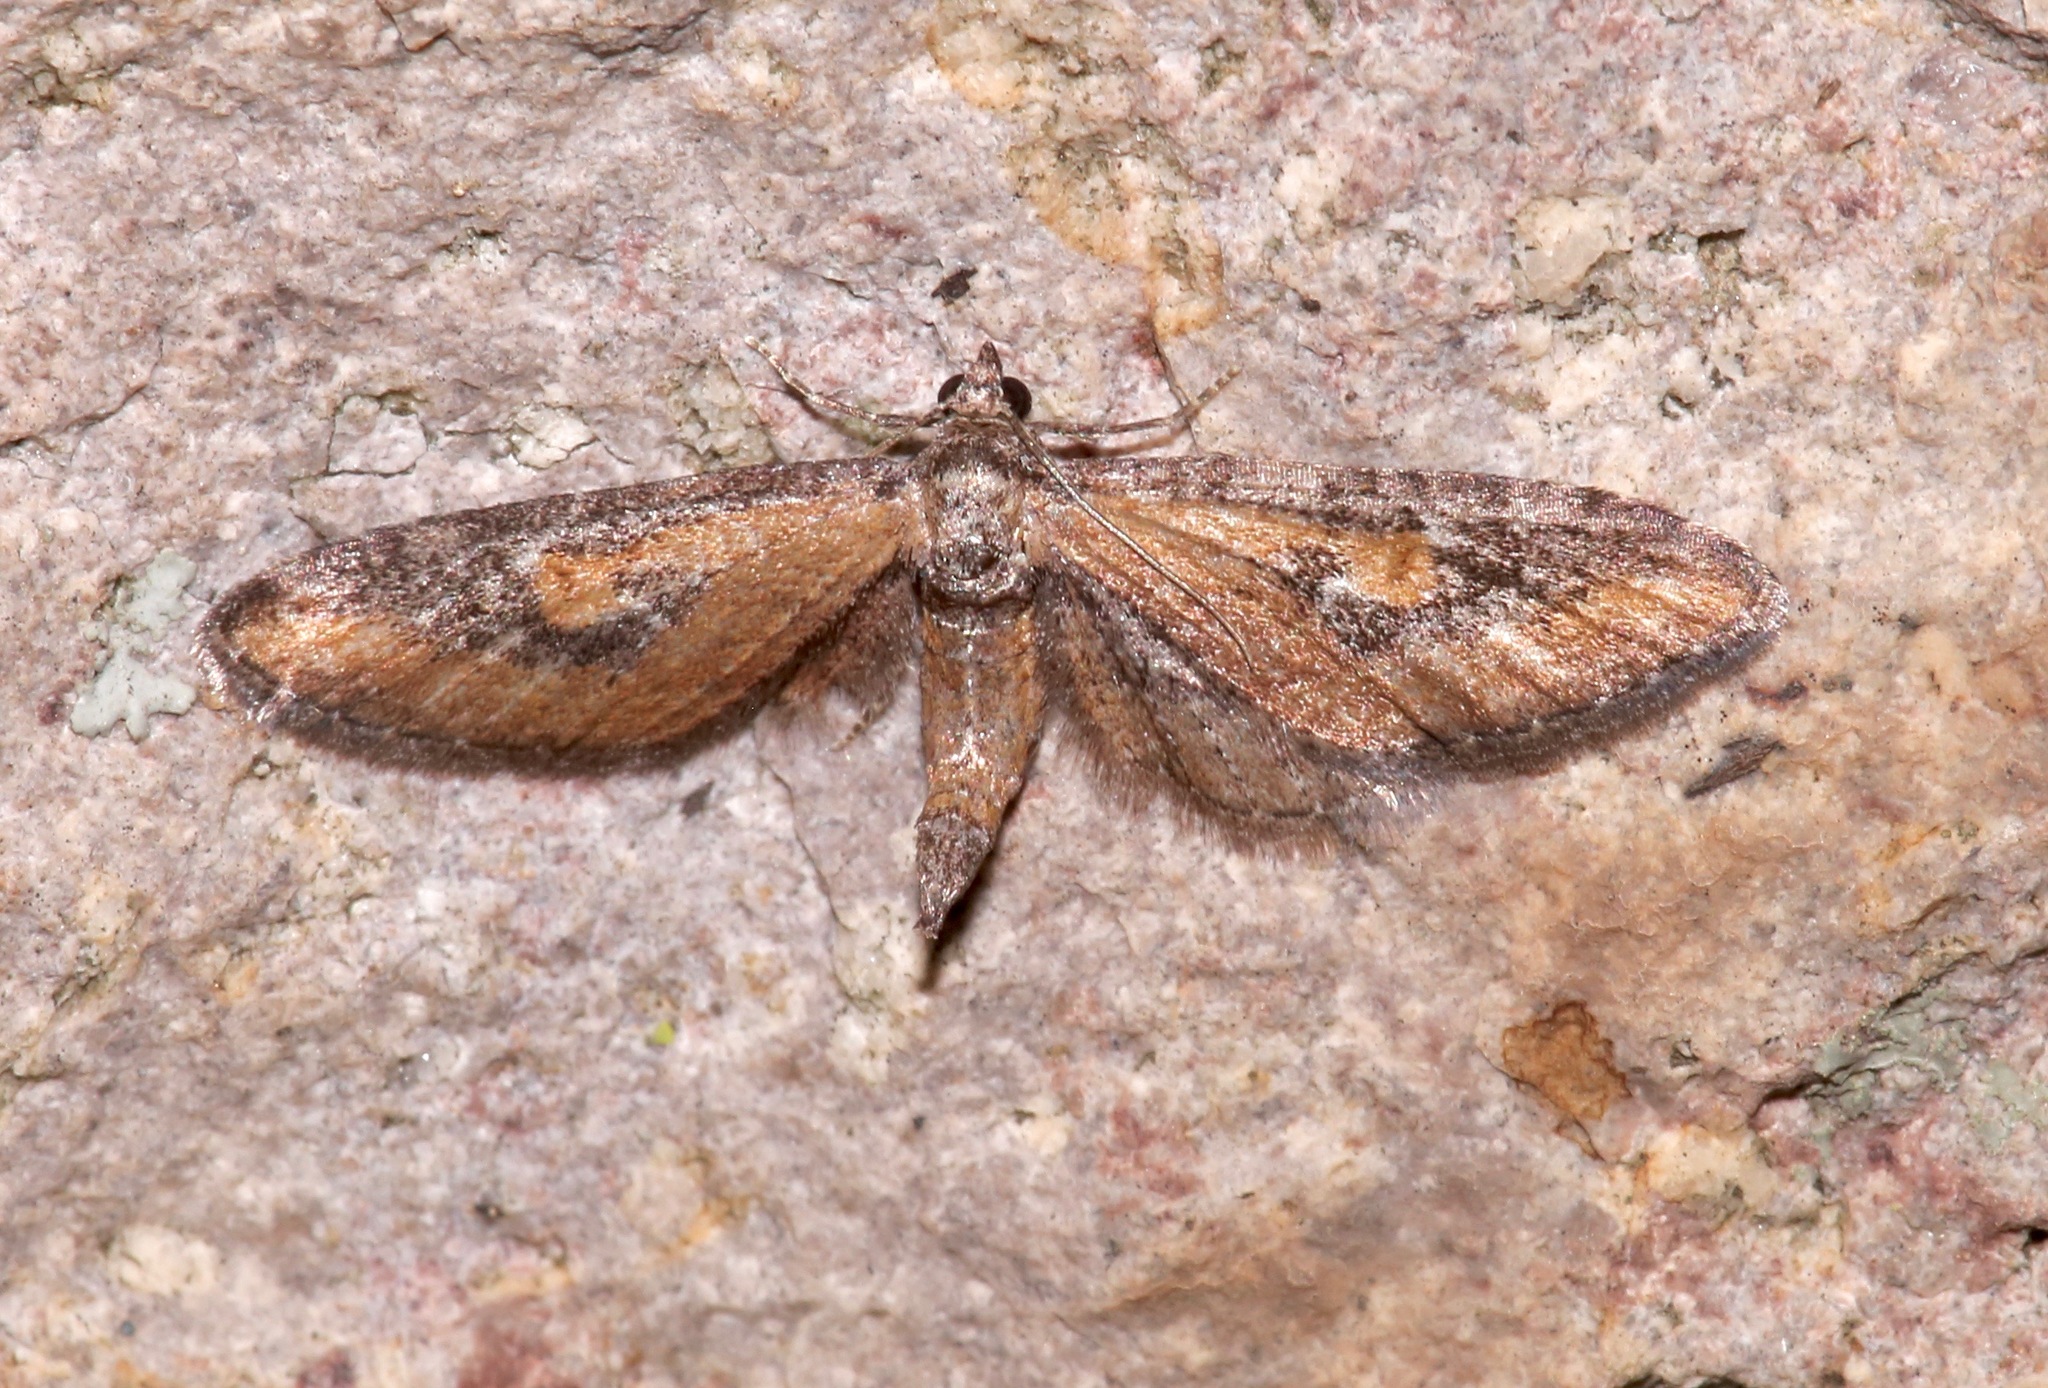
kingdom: Animalia
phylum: Arthropoda
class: Insecta
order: Lepidoptera
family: Geometridae
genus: Eupithecia
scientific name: Eupithecia biedermanata
